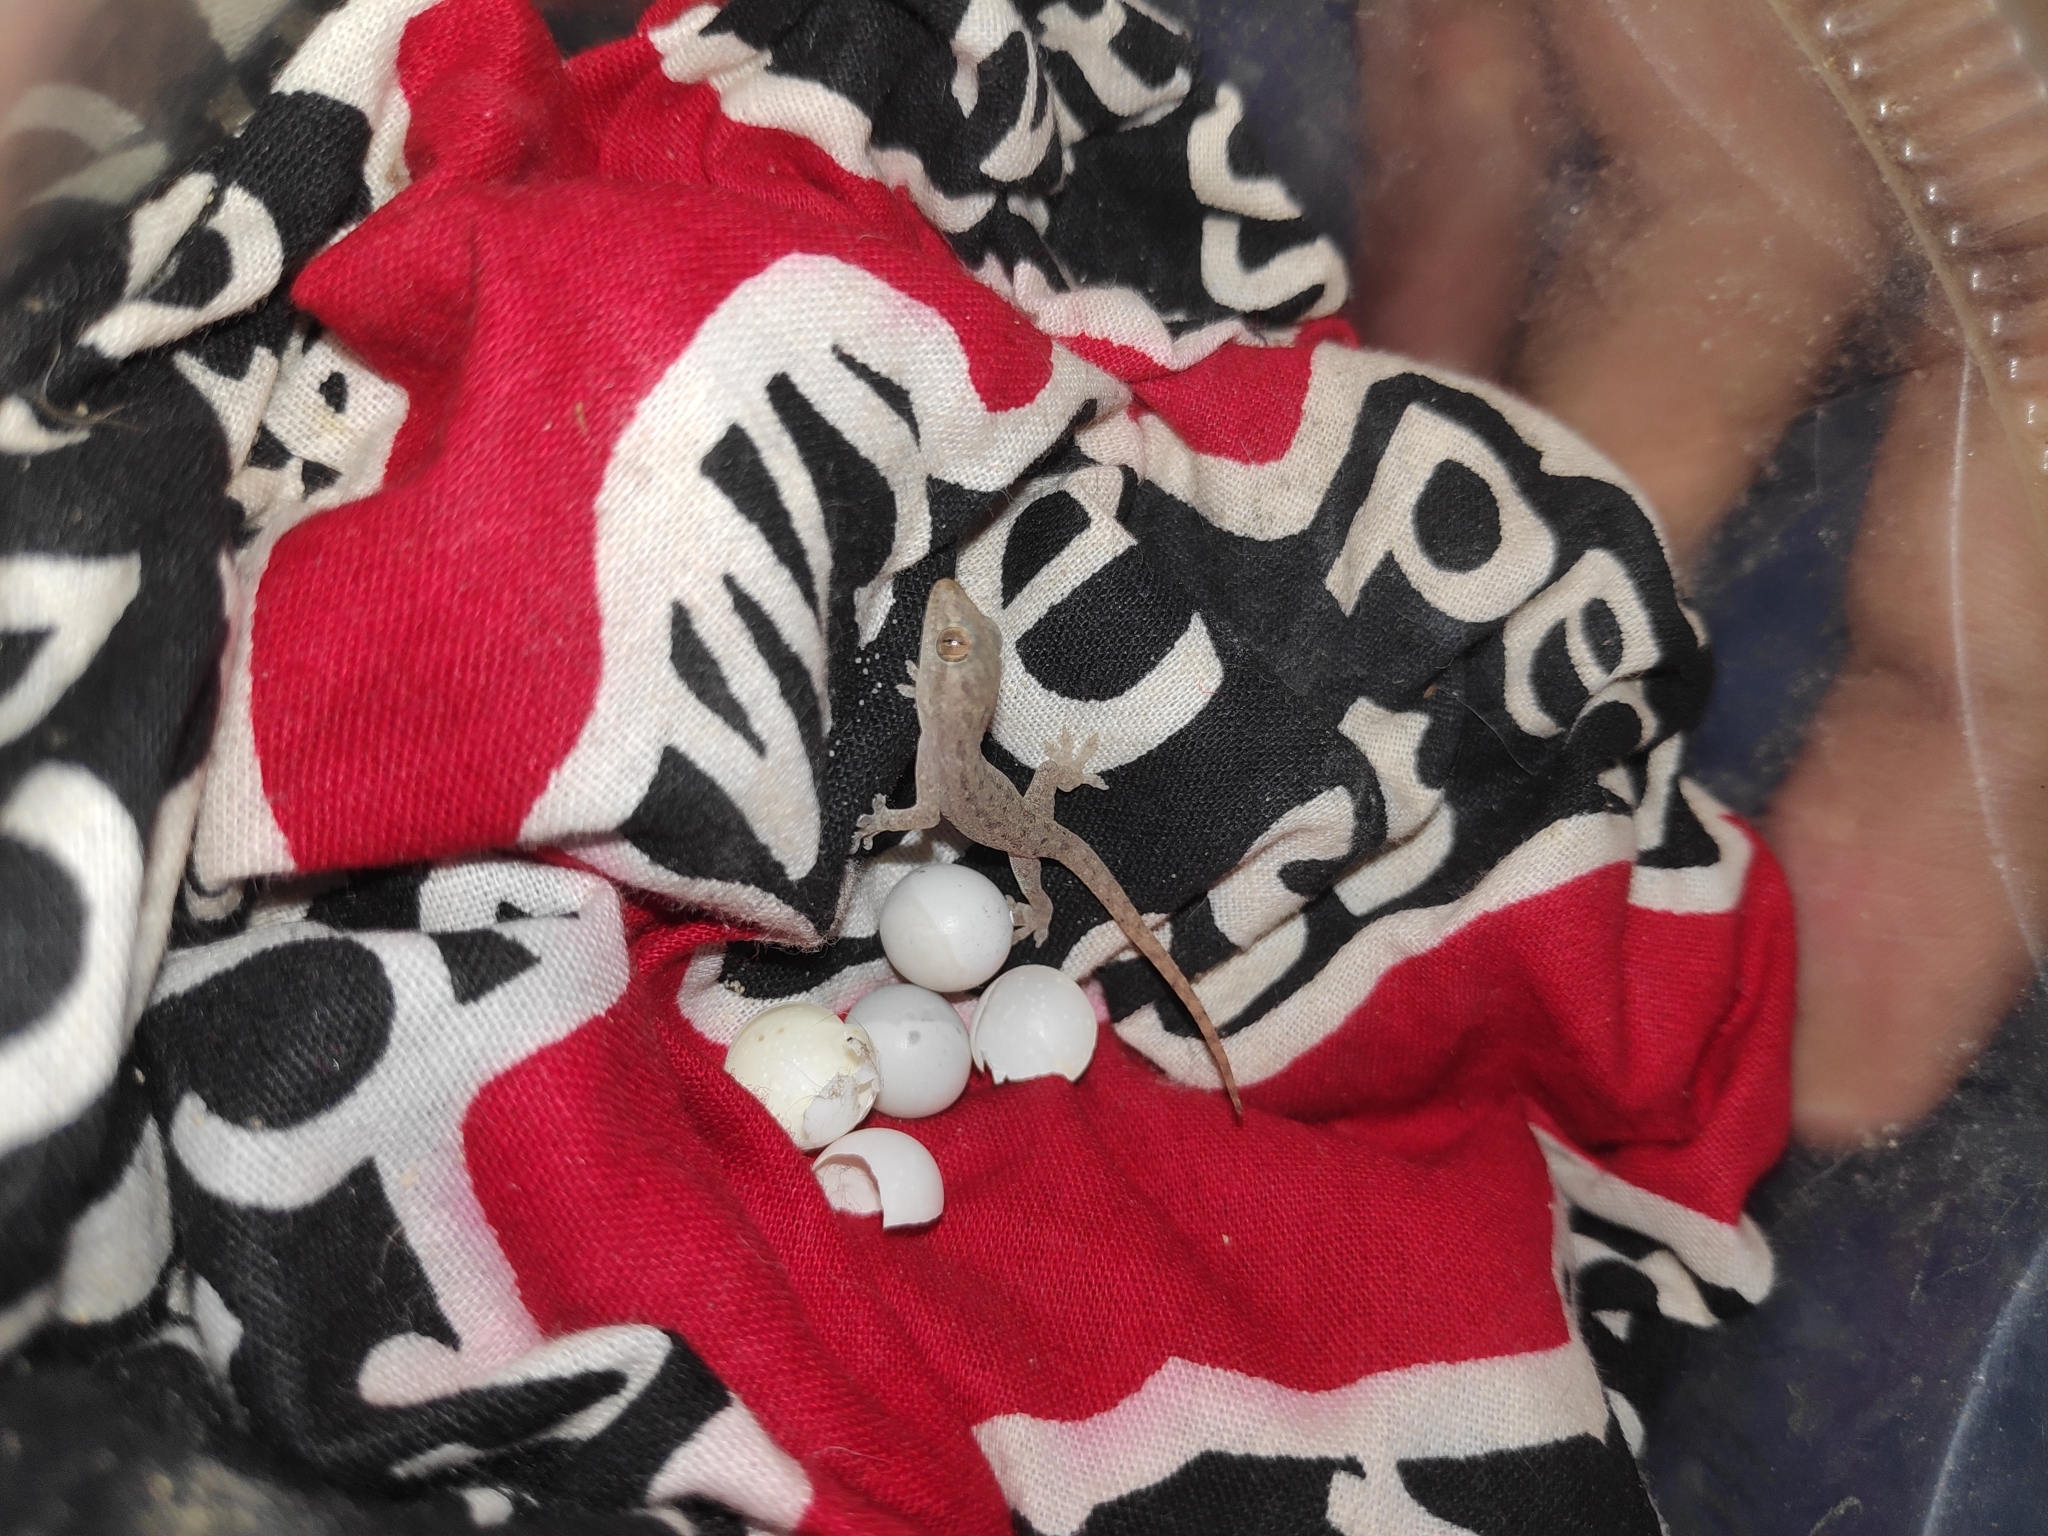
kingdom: Animalia
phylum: Chordata
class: Squamata
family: Gekkonidae
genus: Hemidactylus
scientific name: Hemidactylus frenatus
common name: Common house gecko
